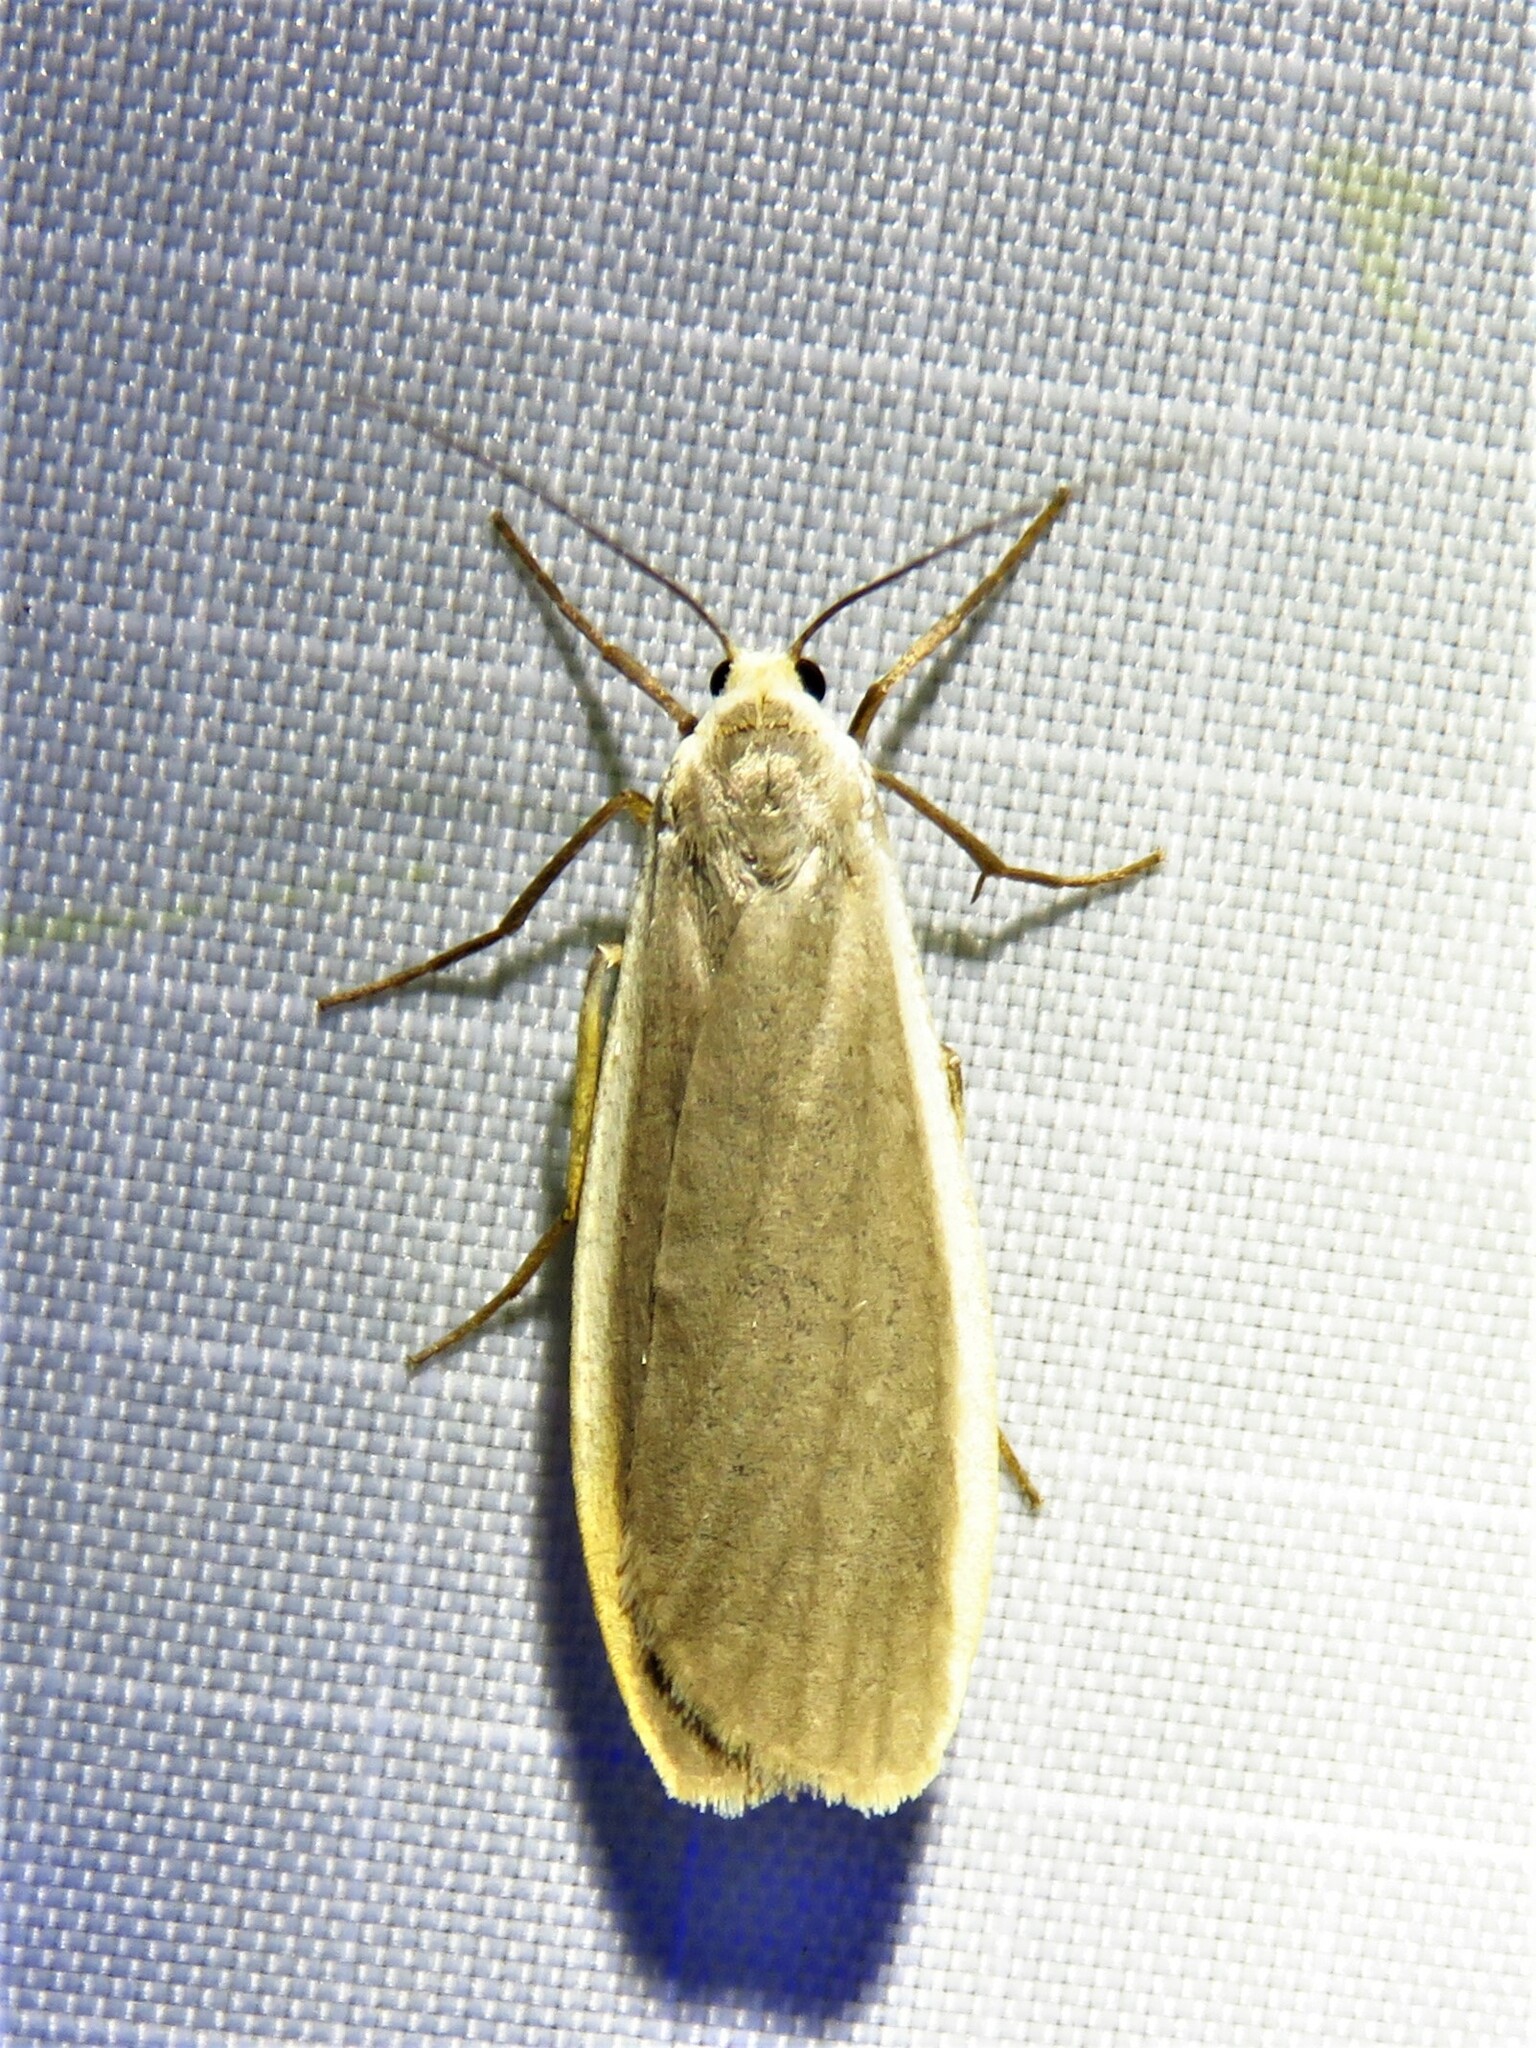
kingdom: Animalia
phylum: Arthropoda
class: Insecta
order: Lepidoptera
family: Erebidae
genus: Nyea
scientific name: Nyea lurideola
